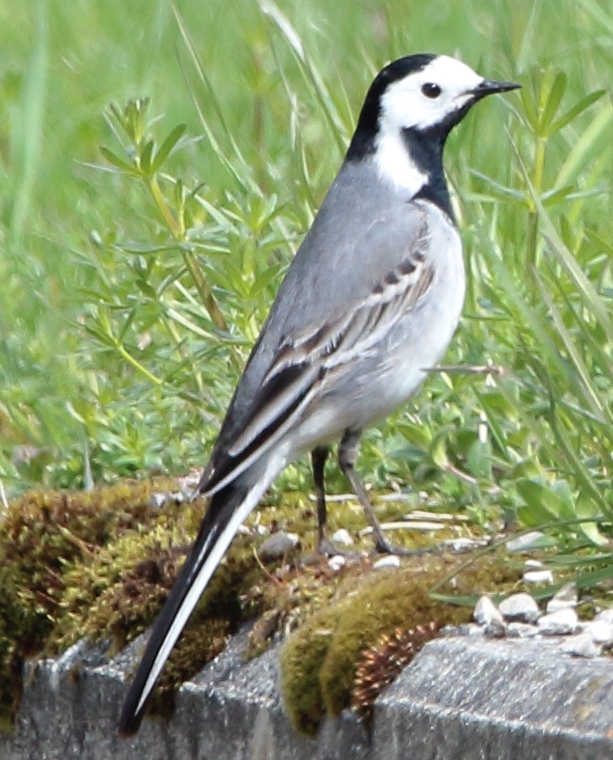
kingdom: Animalia
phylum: Chordata
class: Aves
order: Passeriformes
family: Motacillidae
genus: Motacilla
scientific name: Motacilla alba
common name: White wagtail
